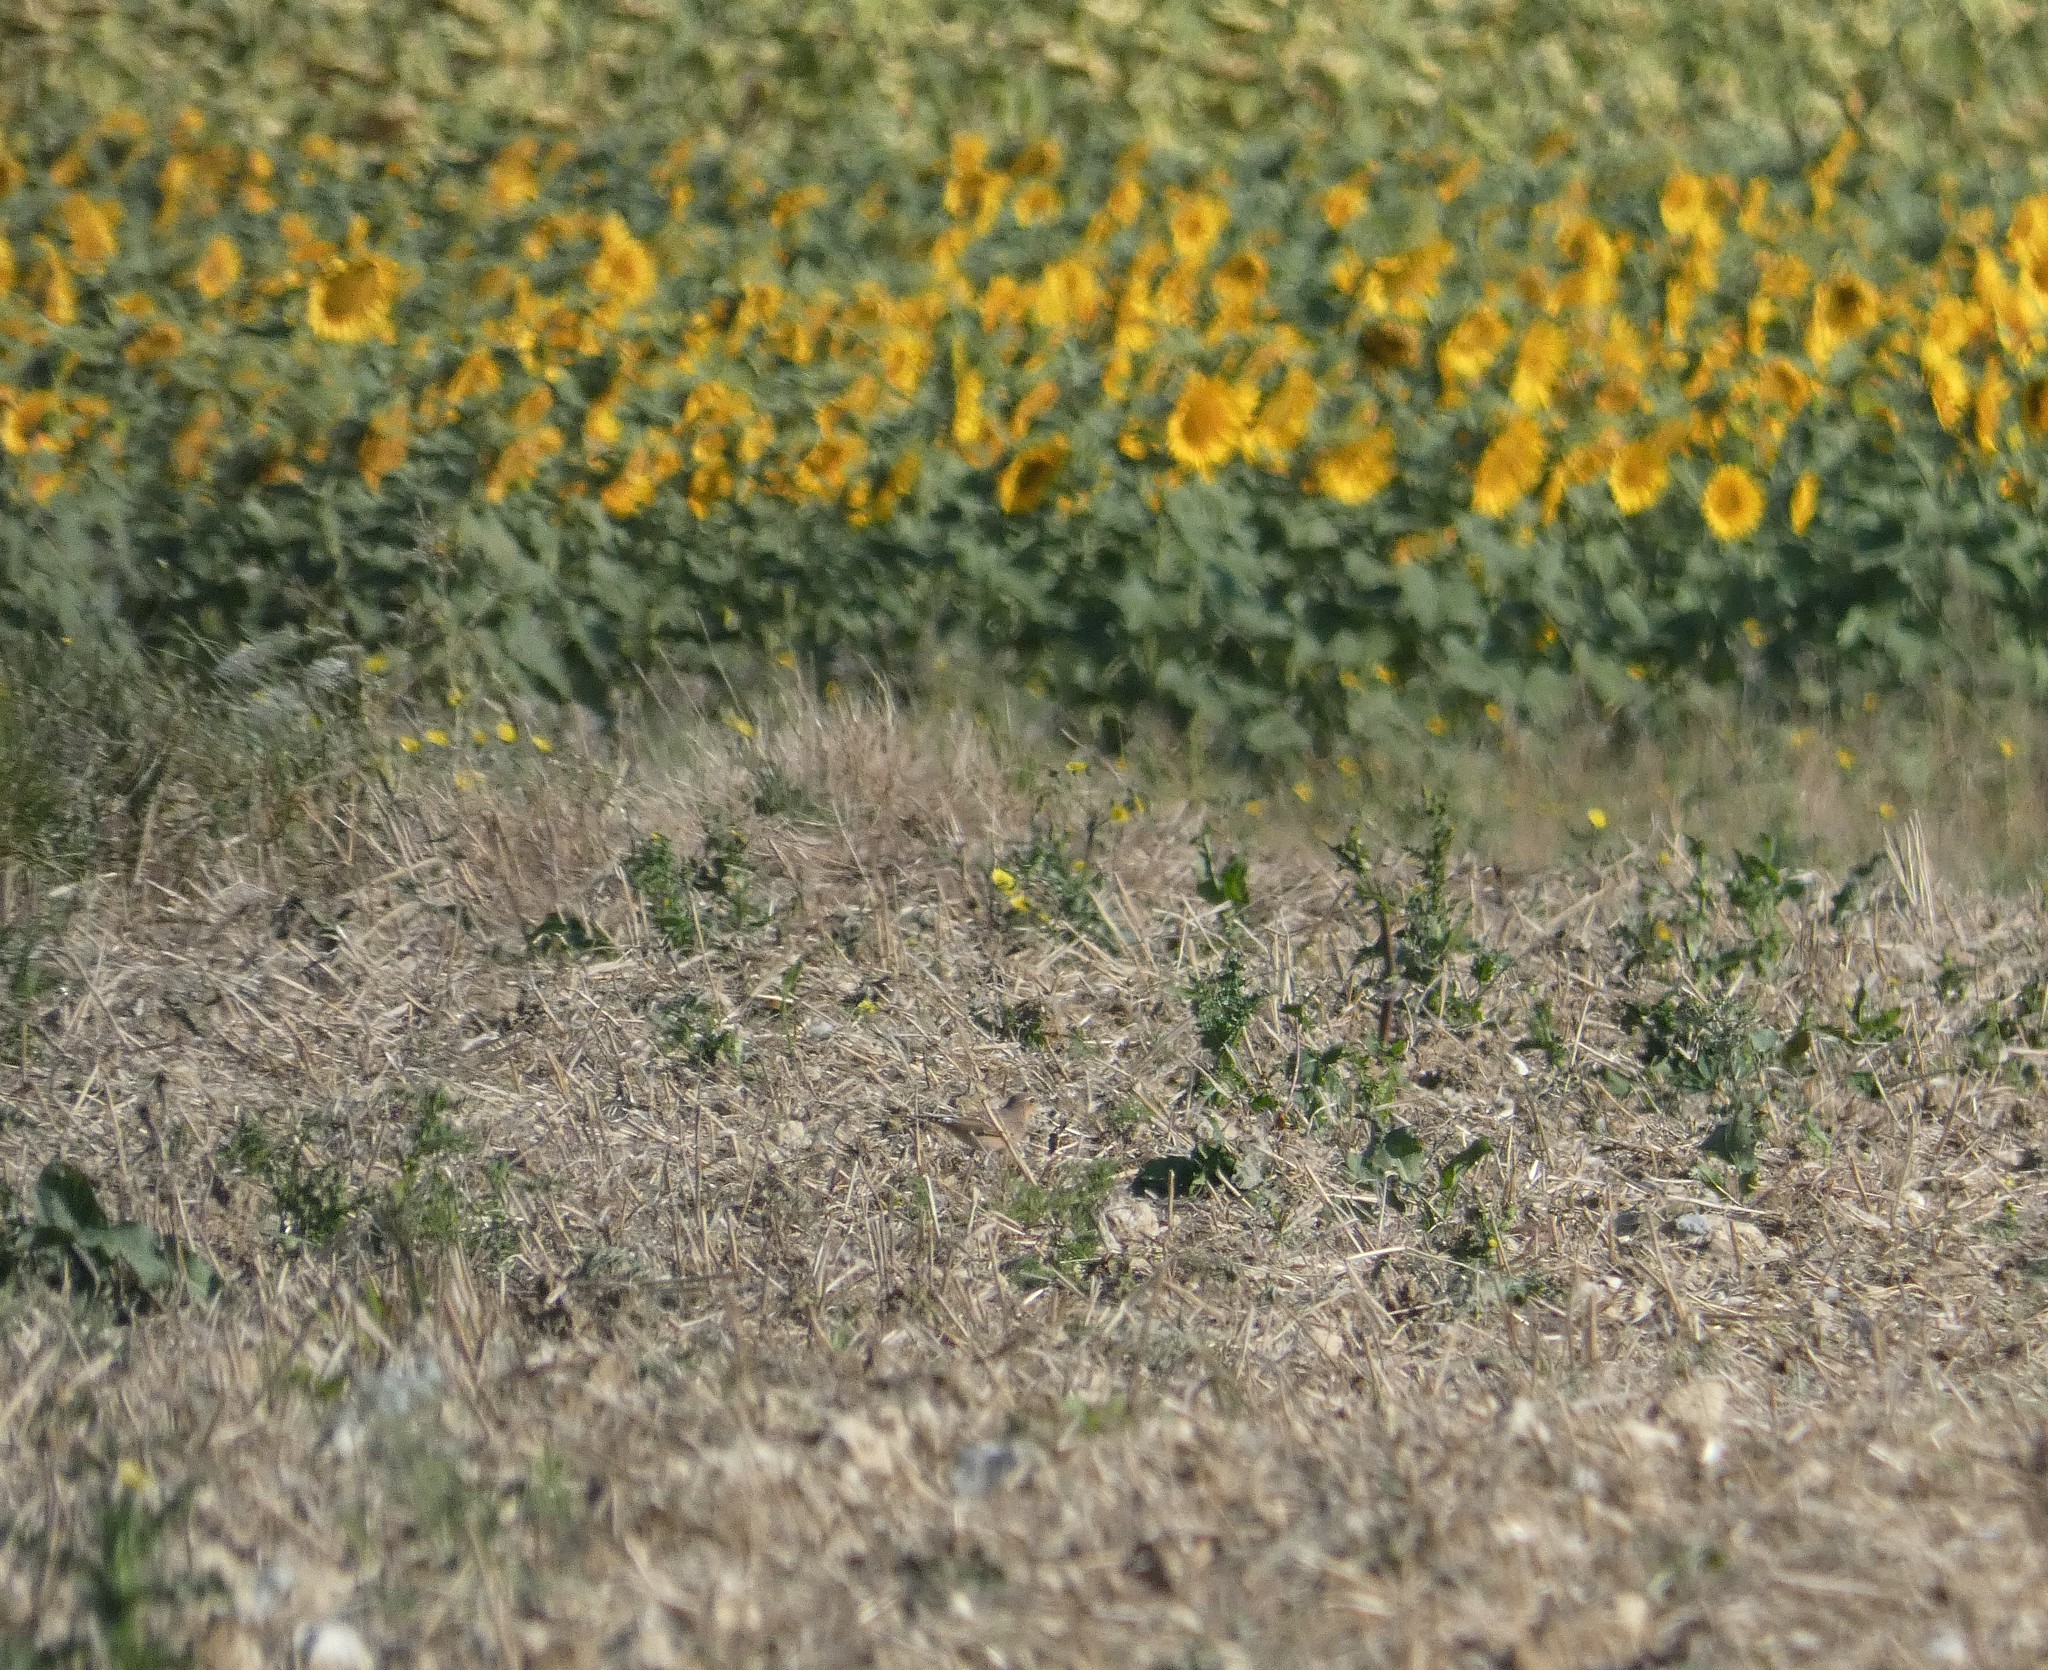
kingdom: Animalia
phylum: Chordata
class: Aves
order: Passeriformes
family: Muscicapidae
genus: Oenanthe
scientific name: Oenanthe oenanthe
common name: Northern wheatear
